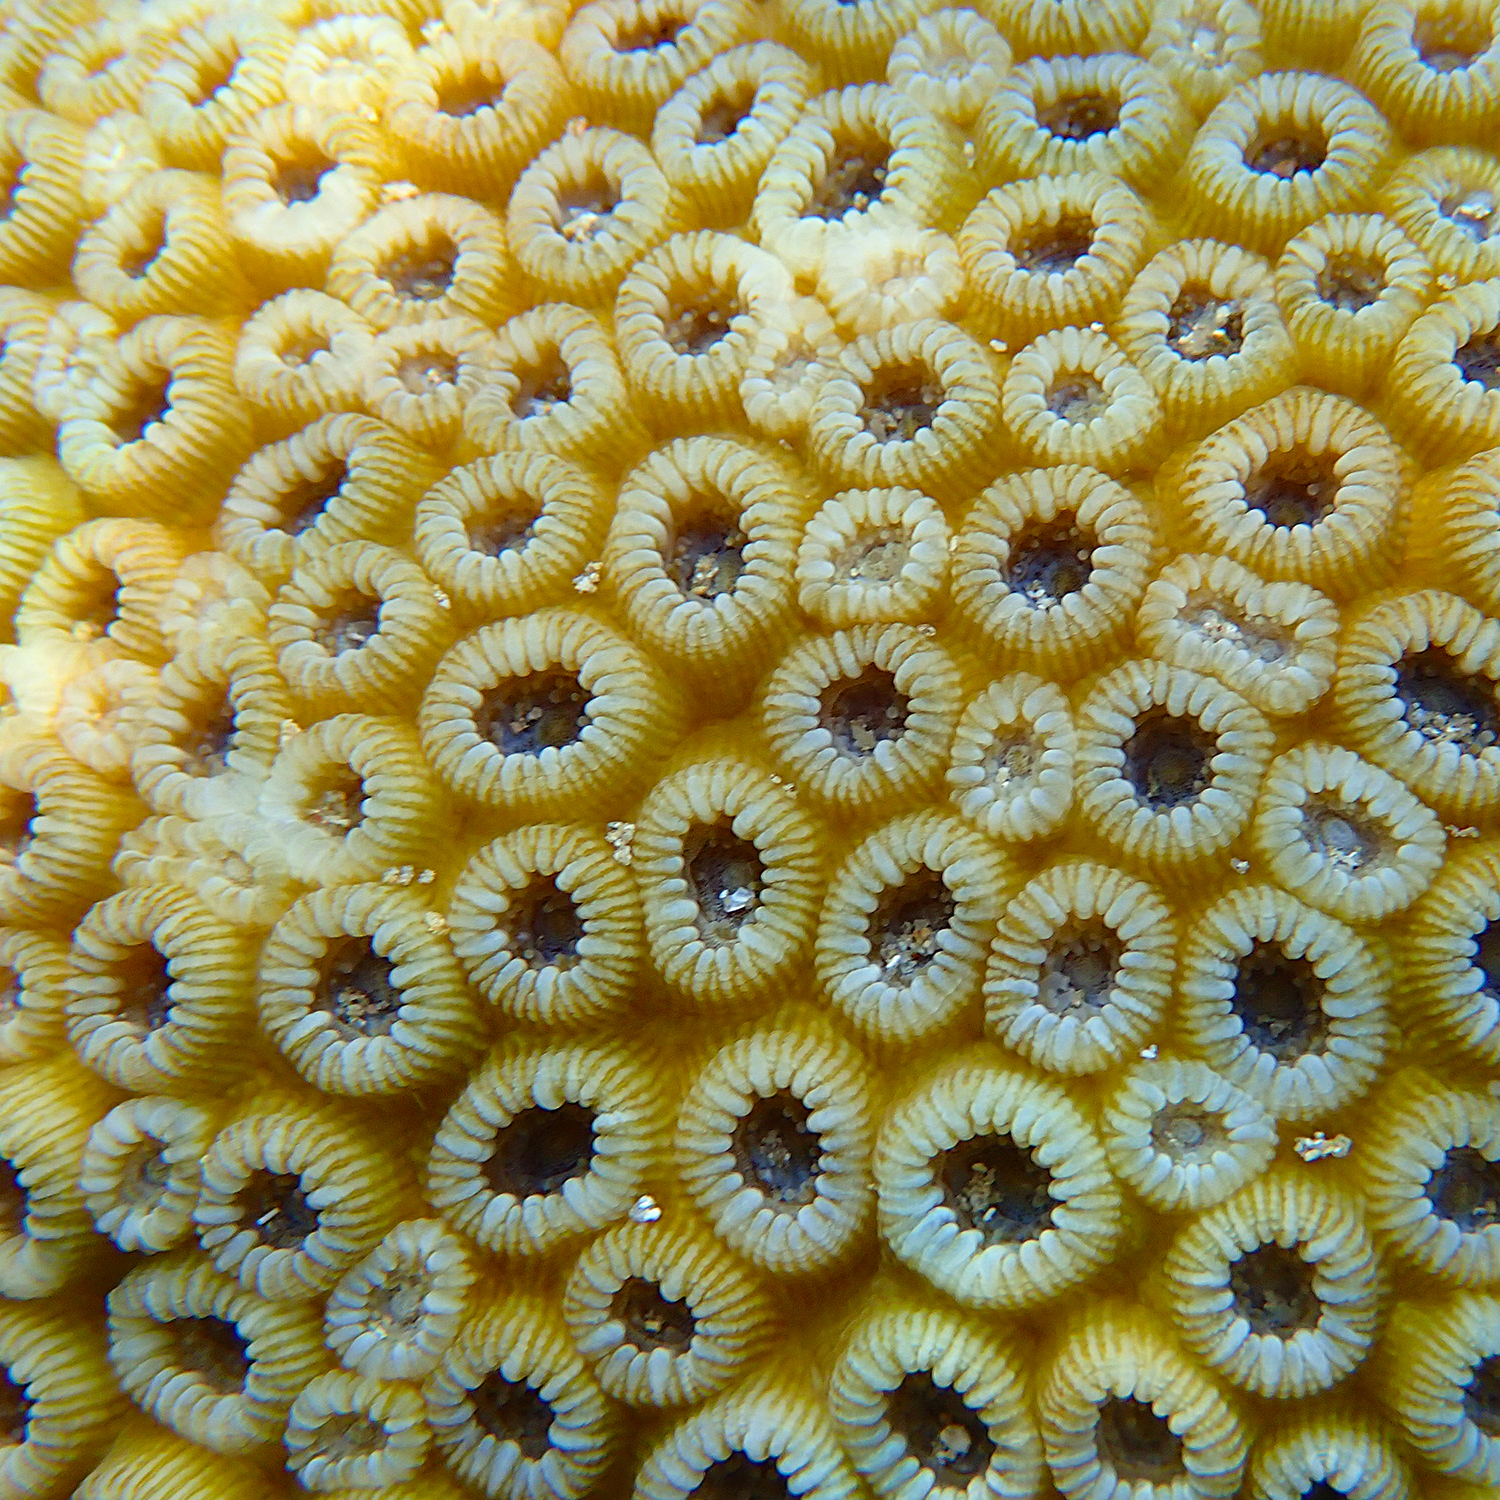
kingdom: Animalia
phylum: Cnidaria
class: Anthozoa
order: Scleractinia
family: Merulinidae
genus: Astrea
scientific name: Astrea curta
